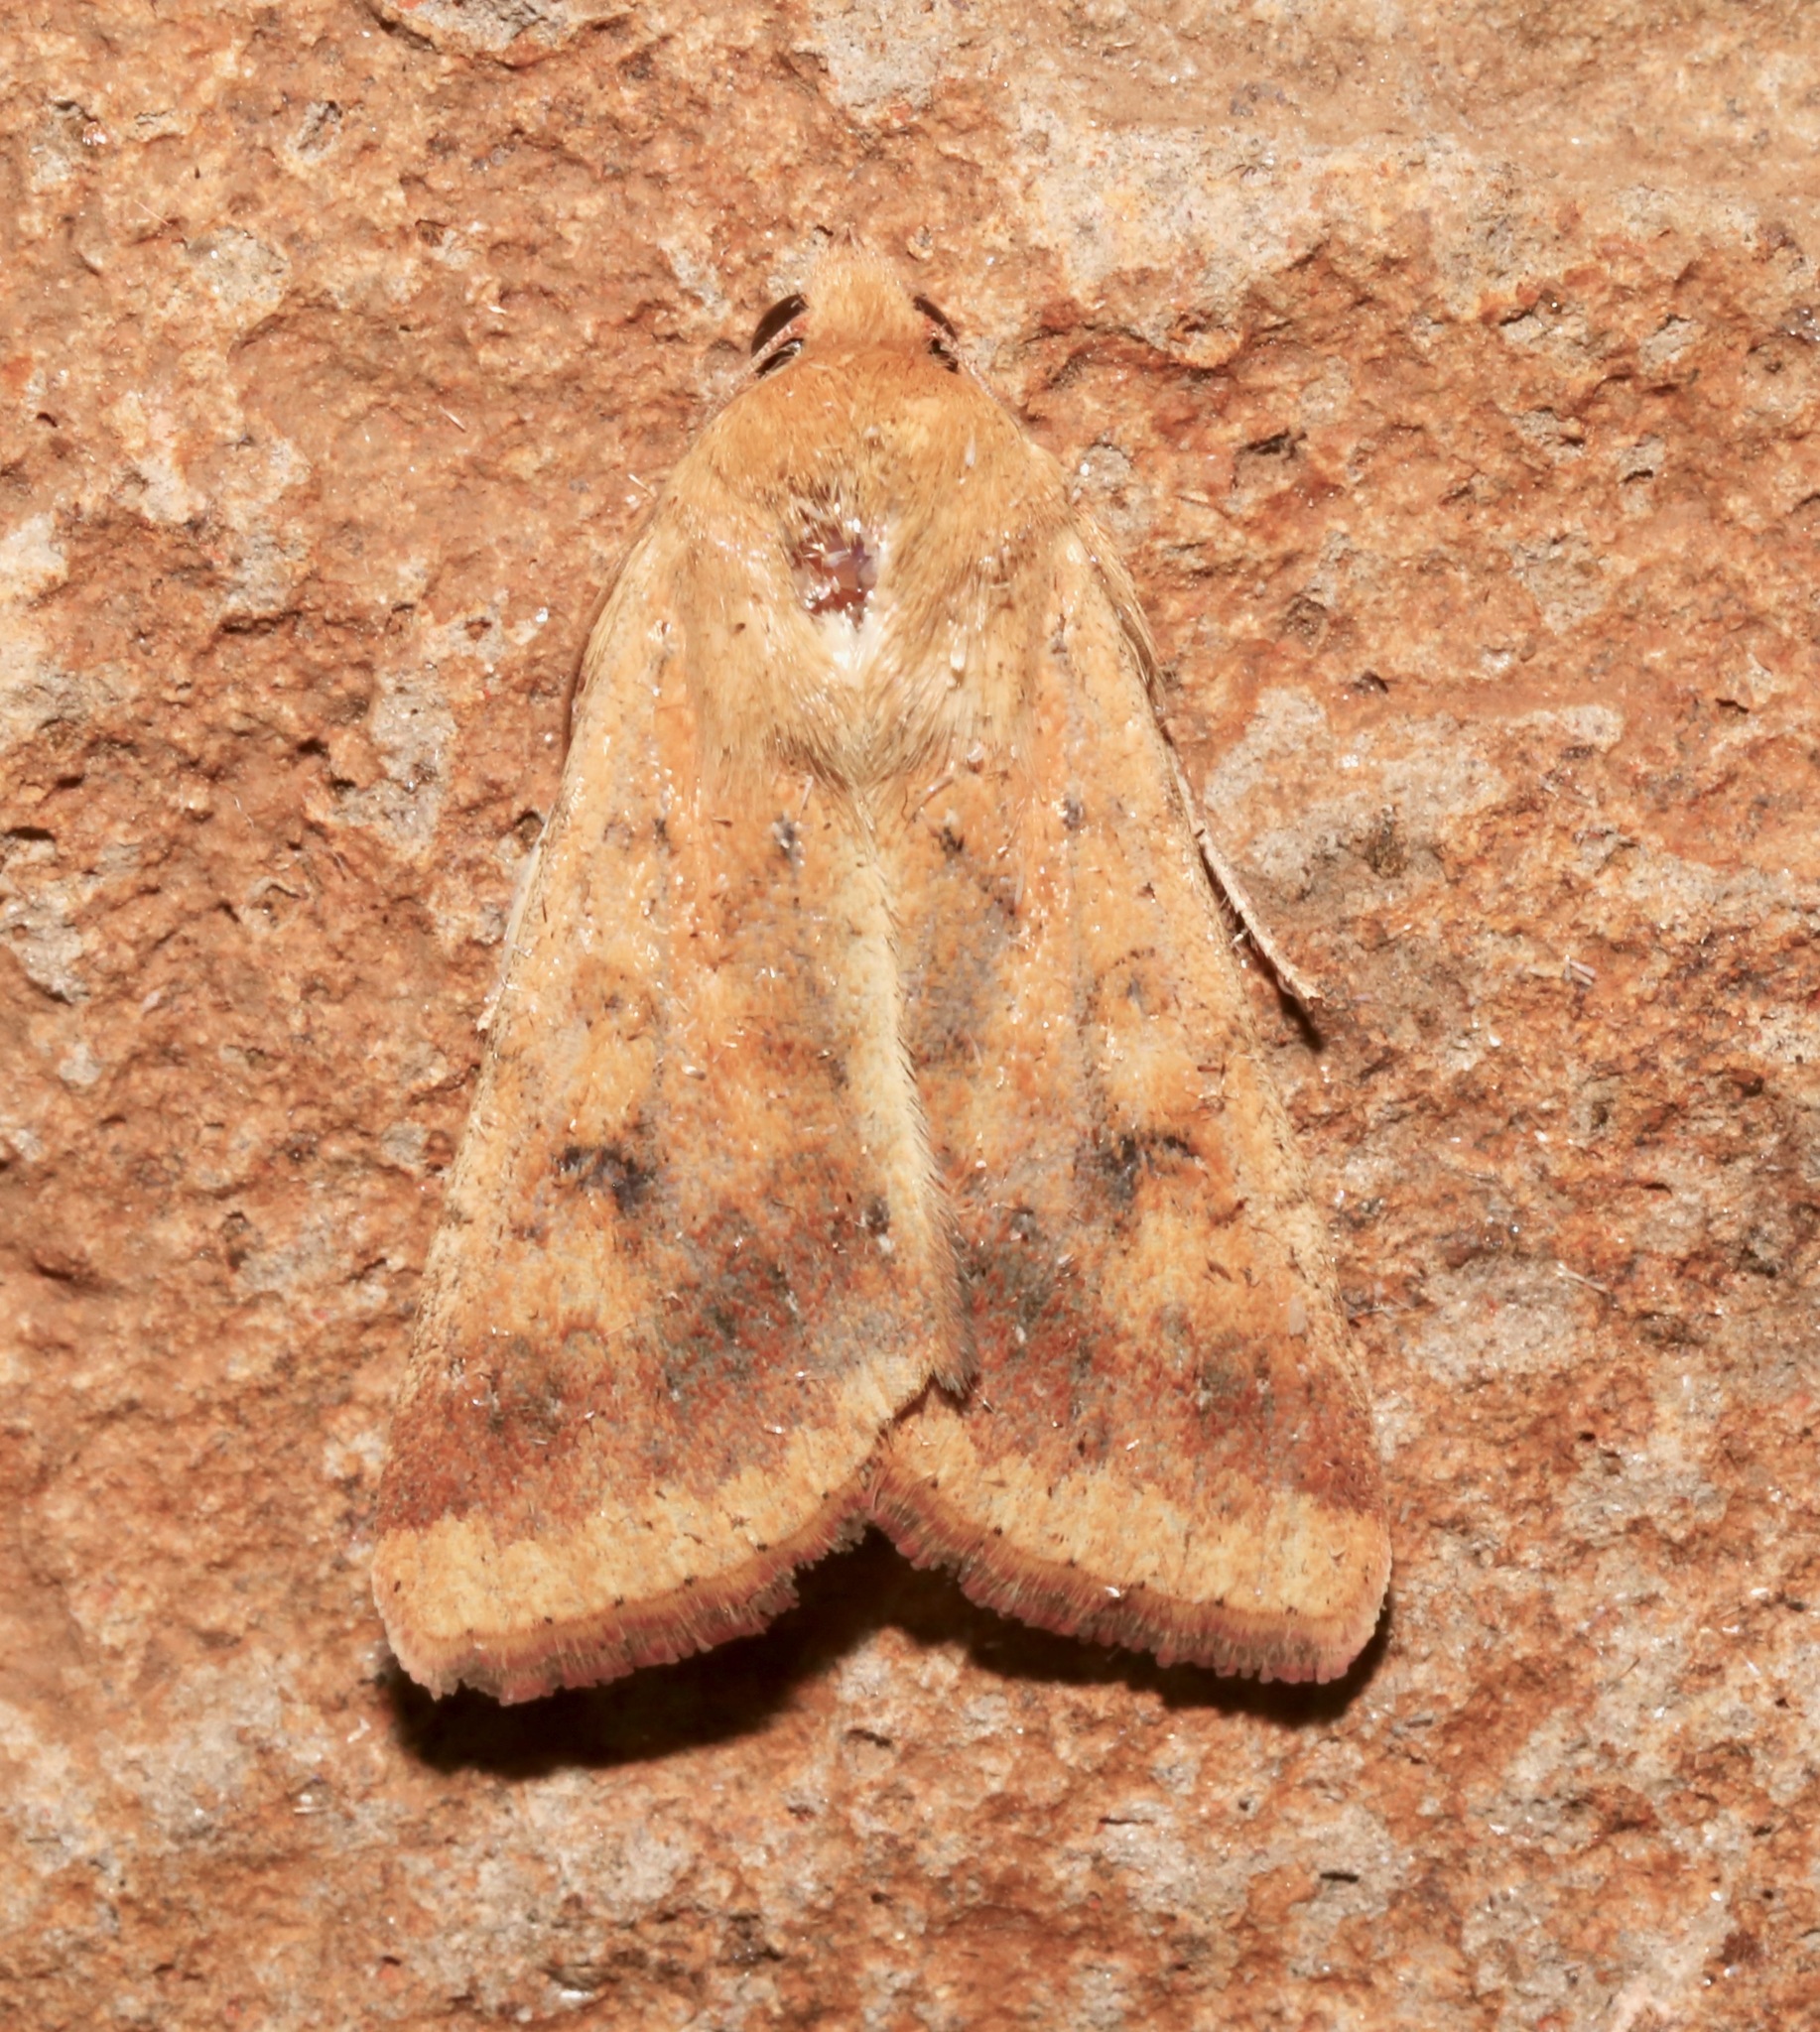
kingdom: Animalia
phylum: Arthropoda
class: Insecta
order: Lepidoptera
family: Noctuidae
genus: Helicoverpa
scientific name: Helicoverpa zea
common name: Bollworm
